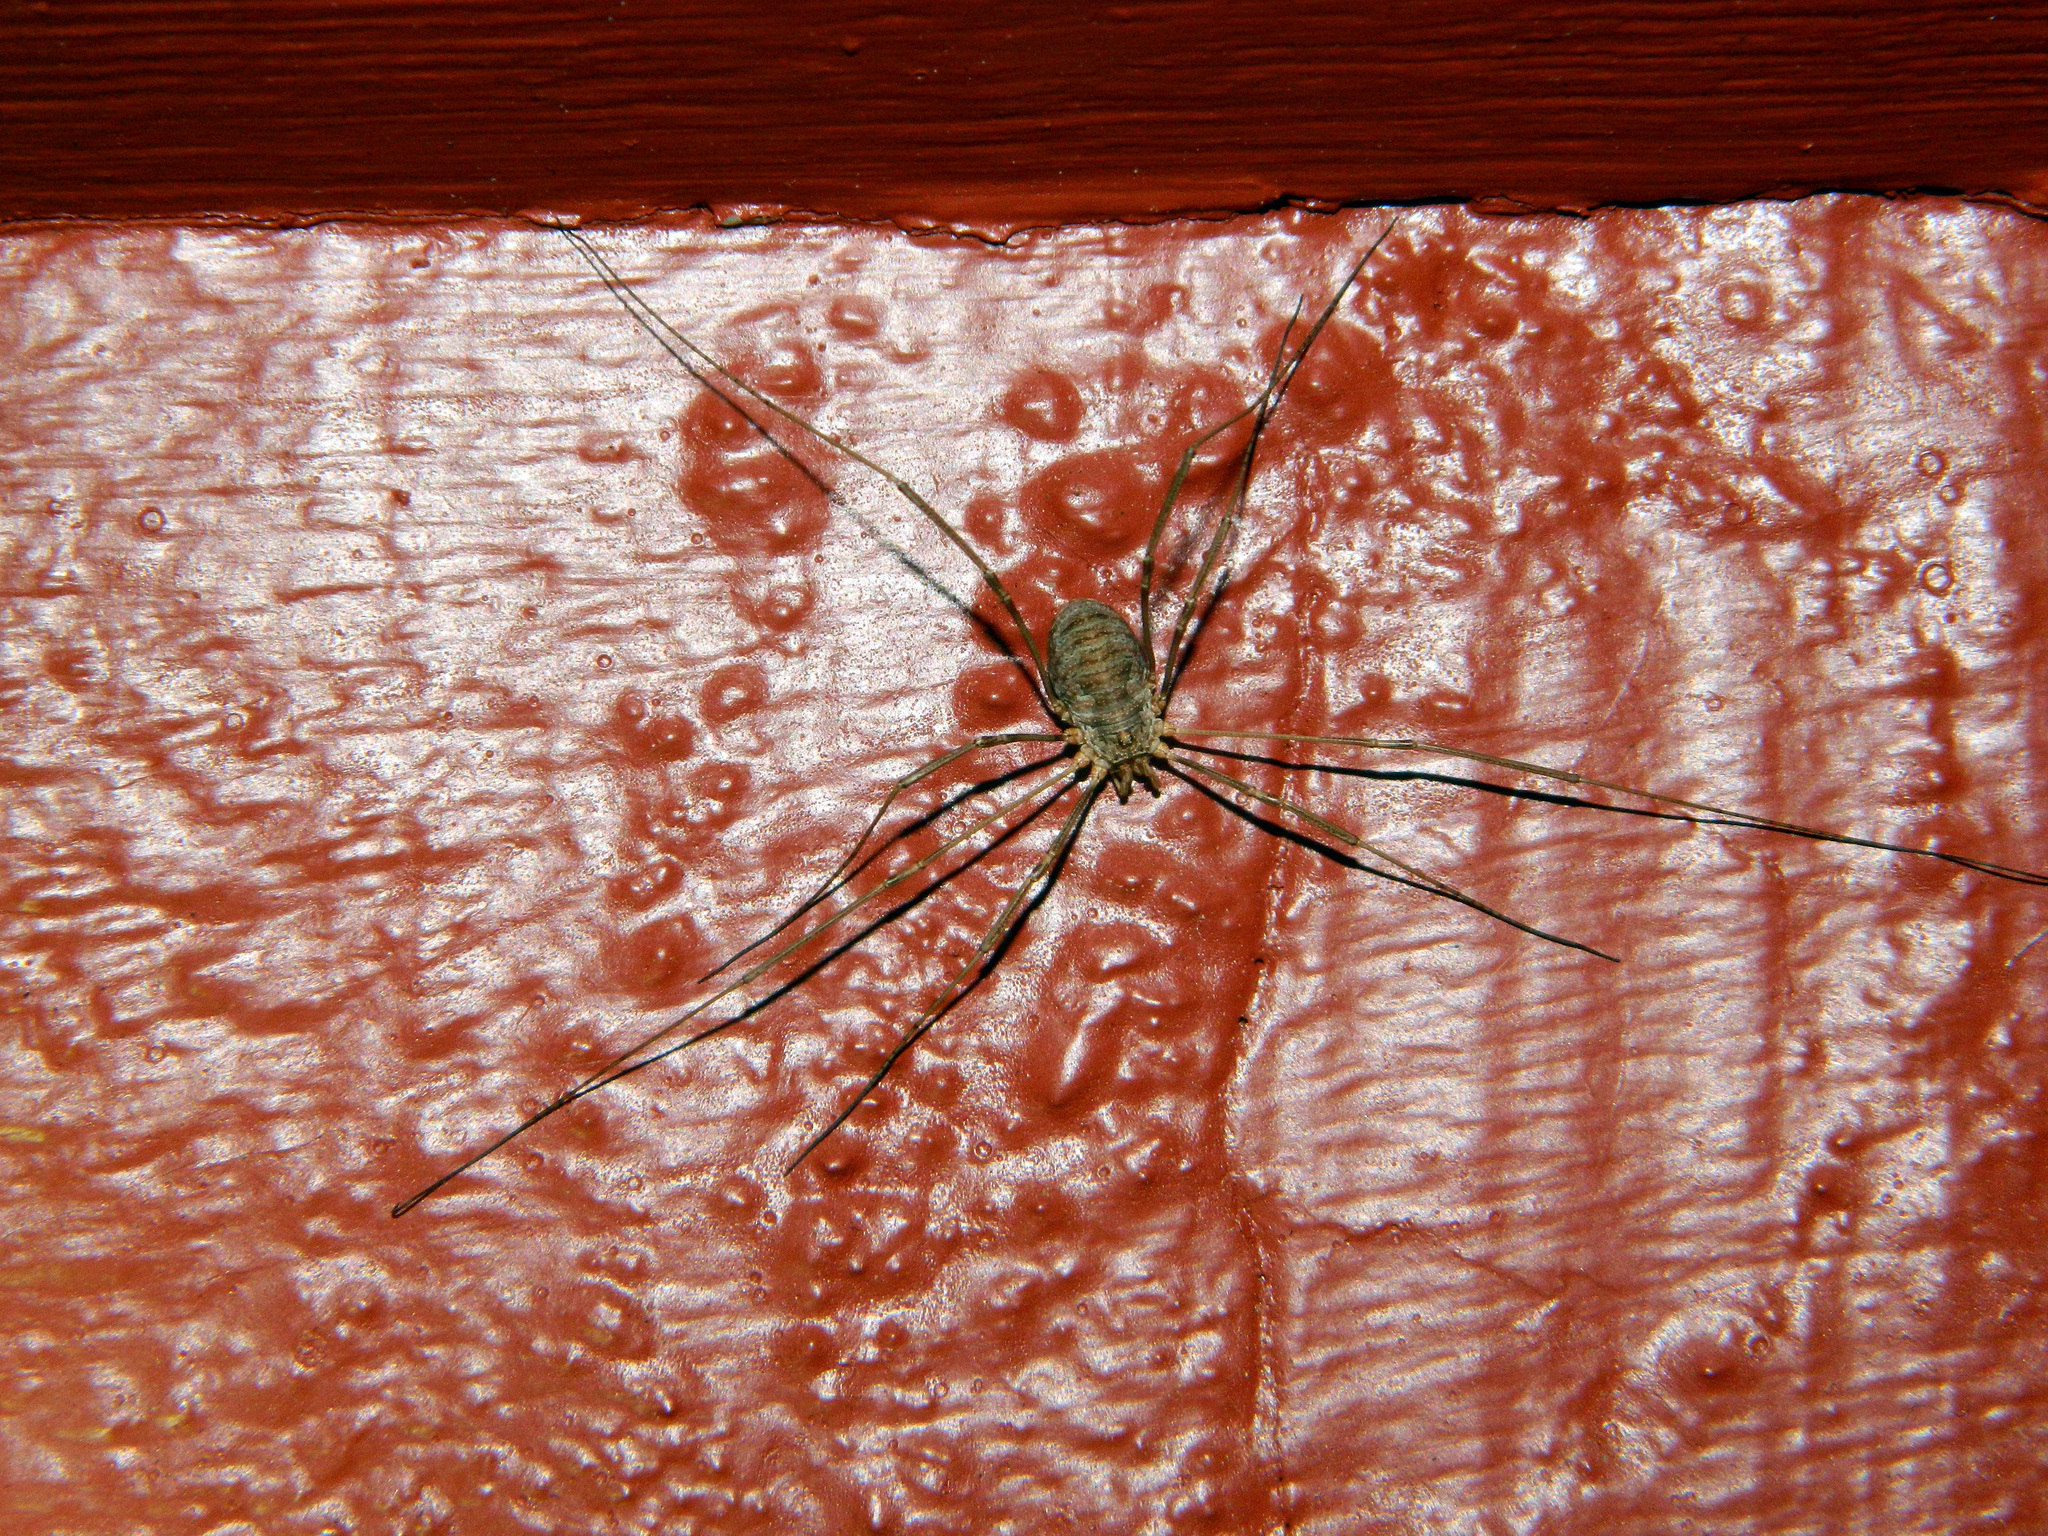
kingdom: Animalia
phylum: Arthropoda
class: Arachnida
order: Opiliones
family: Phalangiidae
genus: Phalangium
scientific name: Phalangium opilio
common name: Daddy longleg
